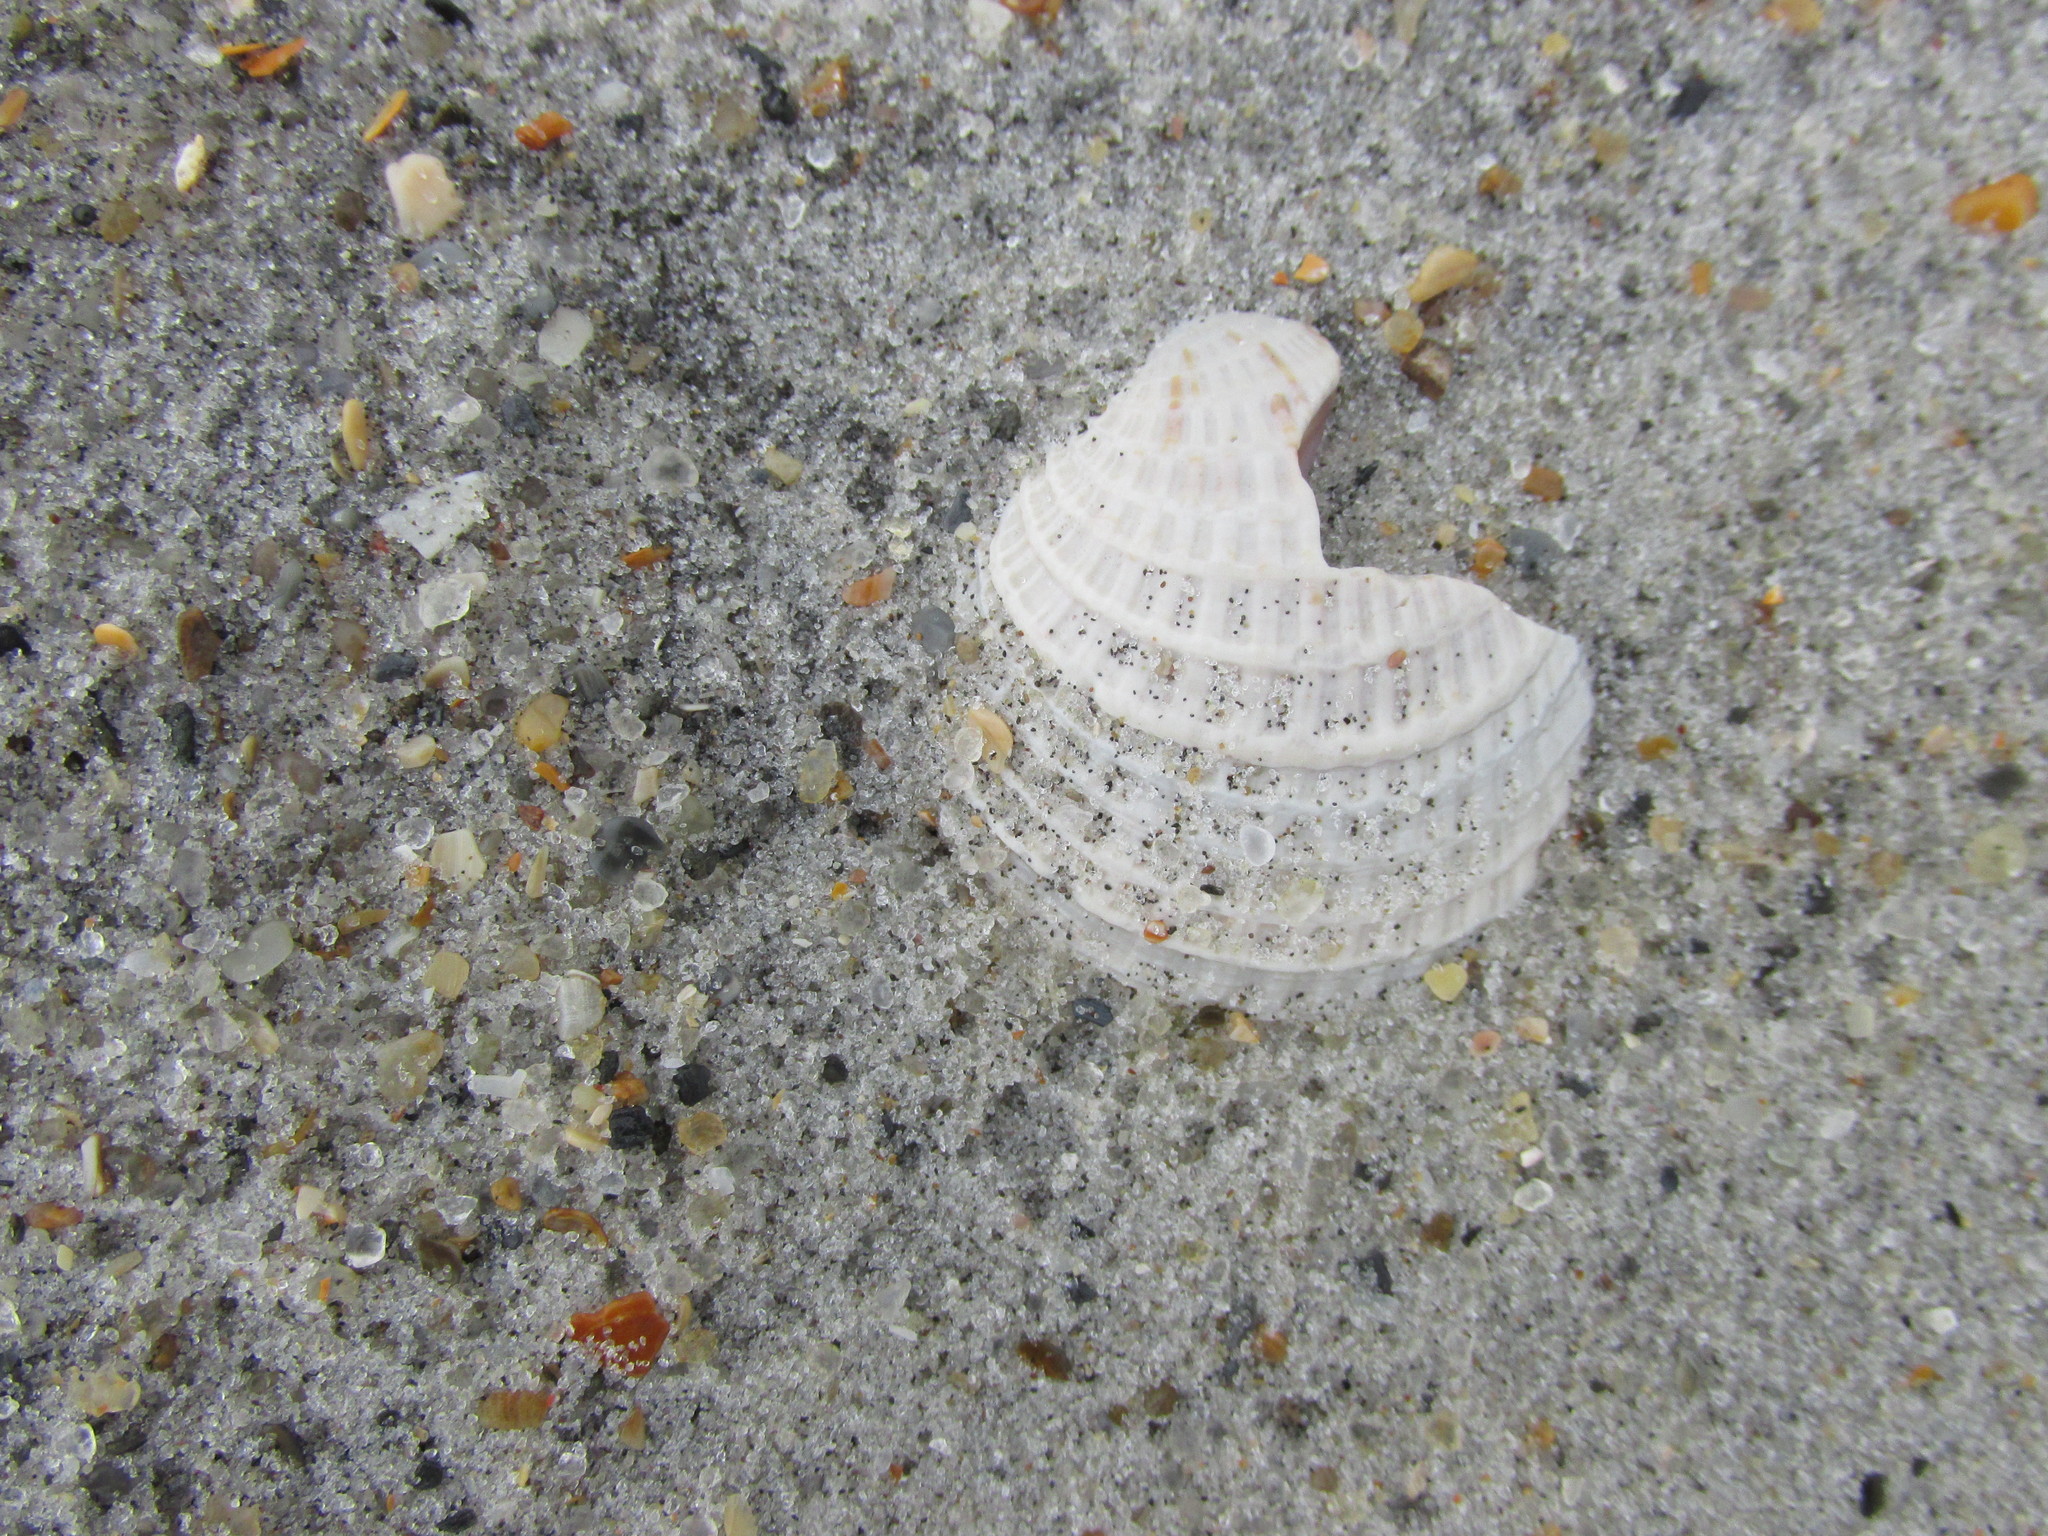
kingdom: Animalia
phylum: Mollusca
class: Bivalvia
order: Venerida
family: Veneridae
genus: Chione
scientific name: Chione elevata
